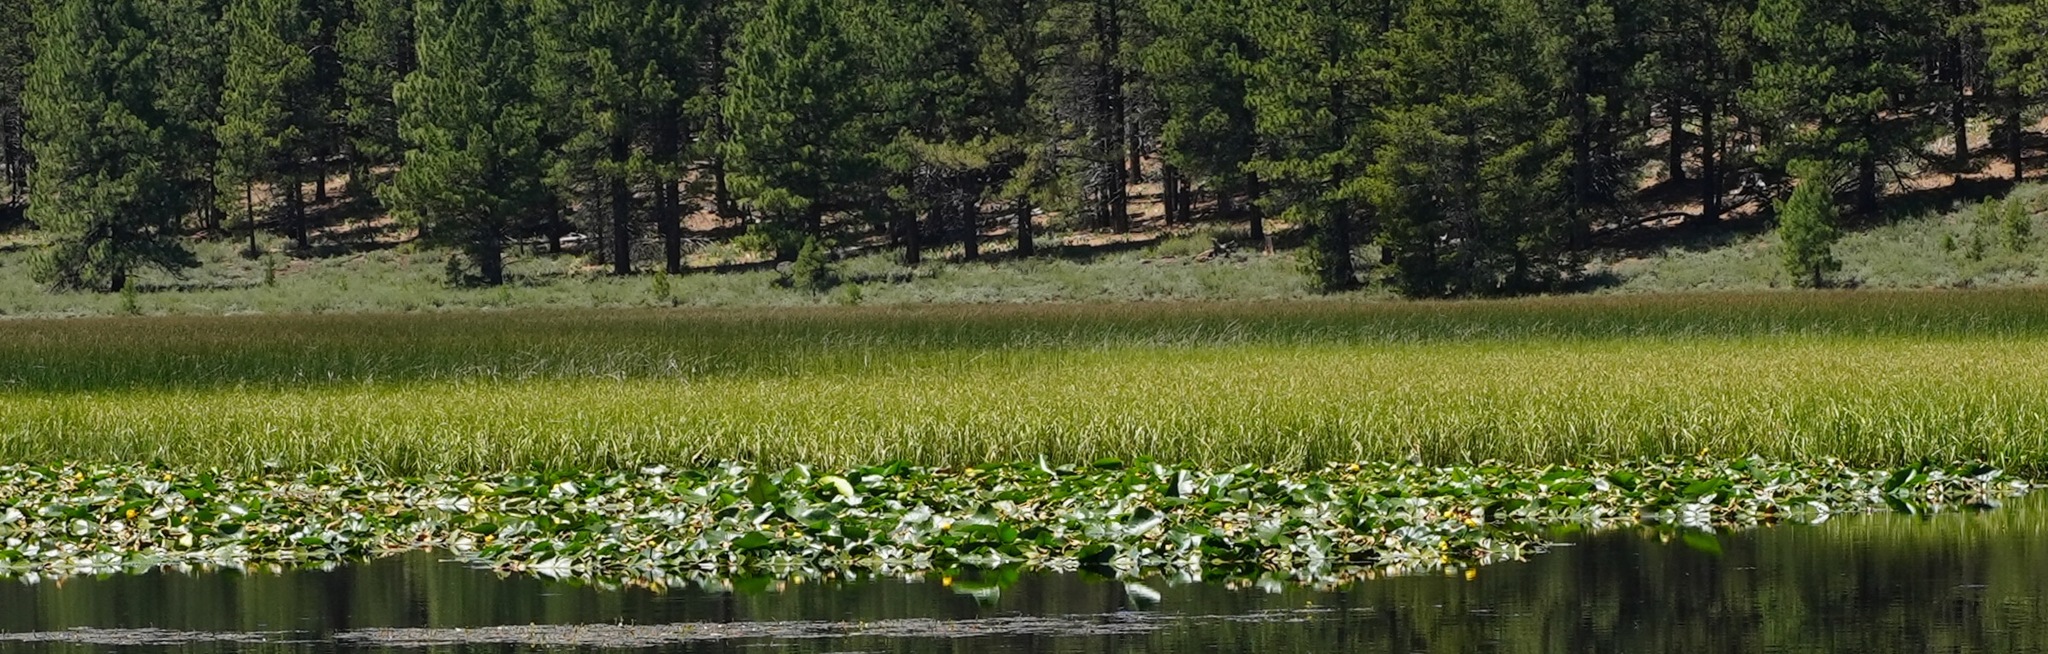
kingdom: Plantae
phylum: Tracheophyta
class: Magnoliopsida
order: Nymphaeales
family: Nymphaeaceae
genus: Nuphar
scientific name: Nuphar polysepala
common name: Rocky mountain cow-lily
